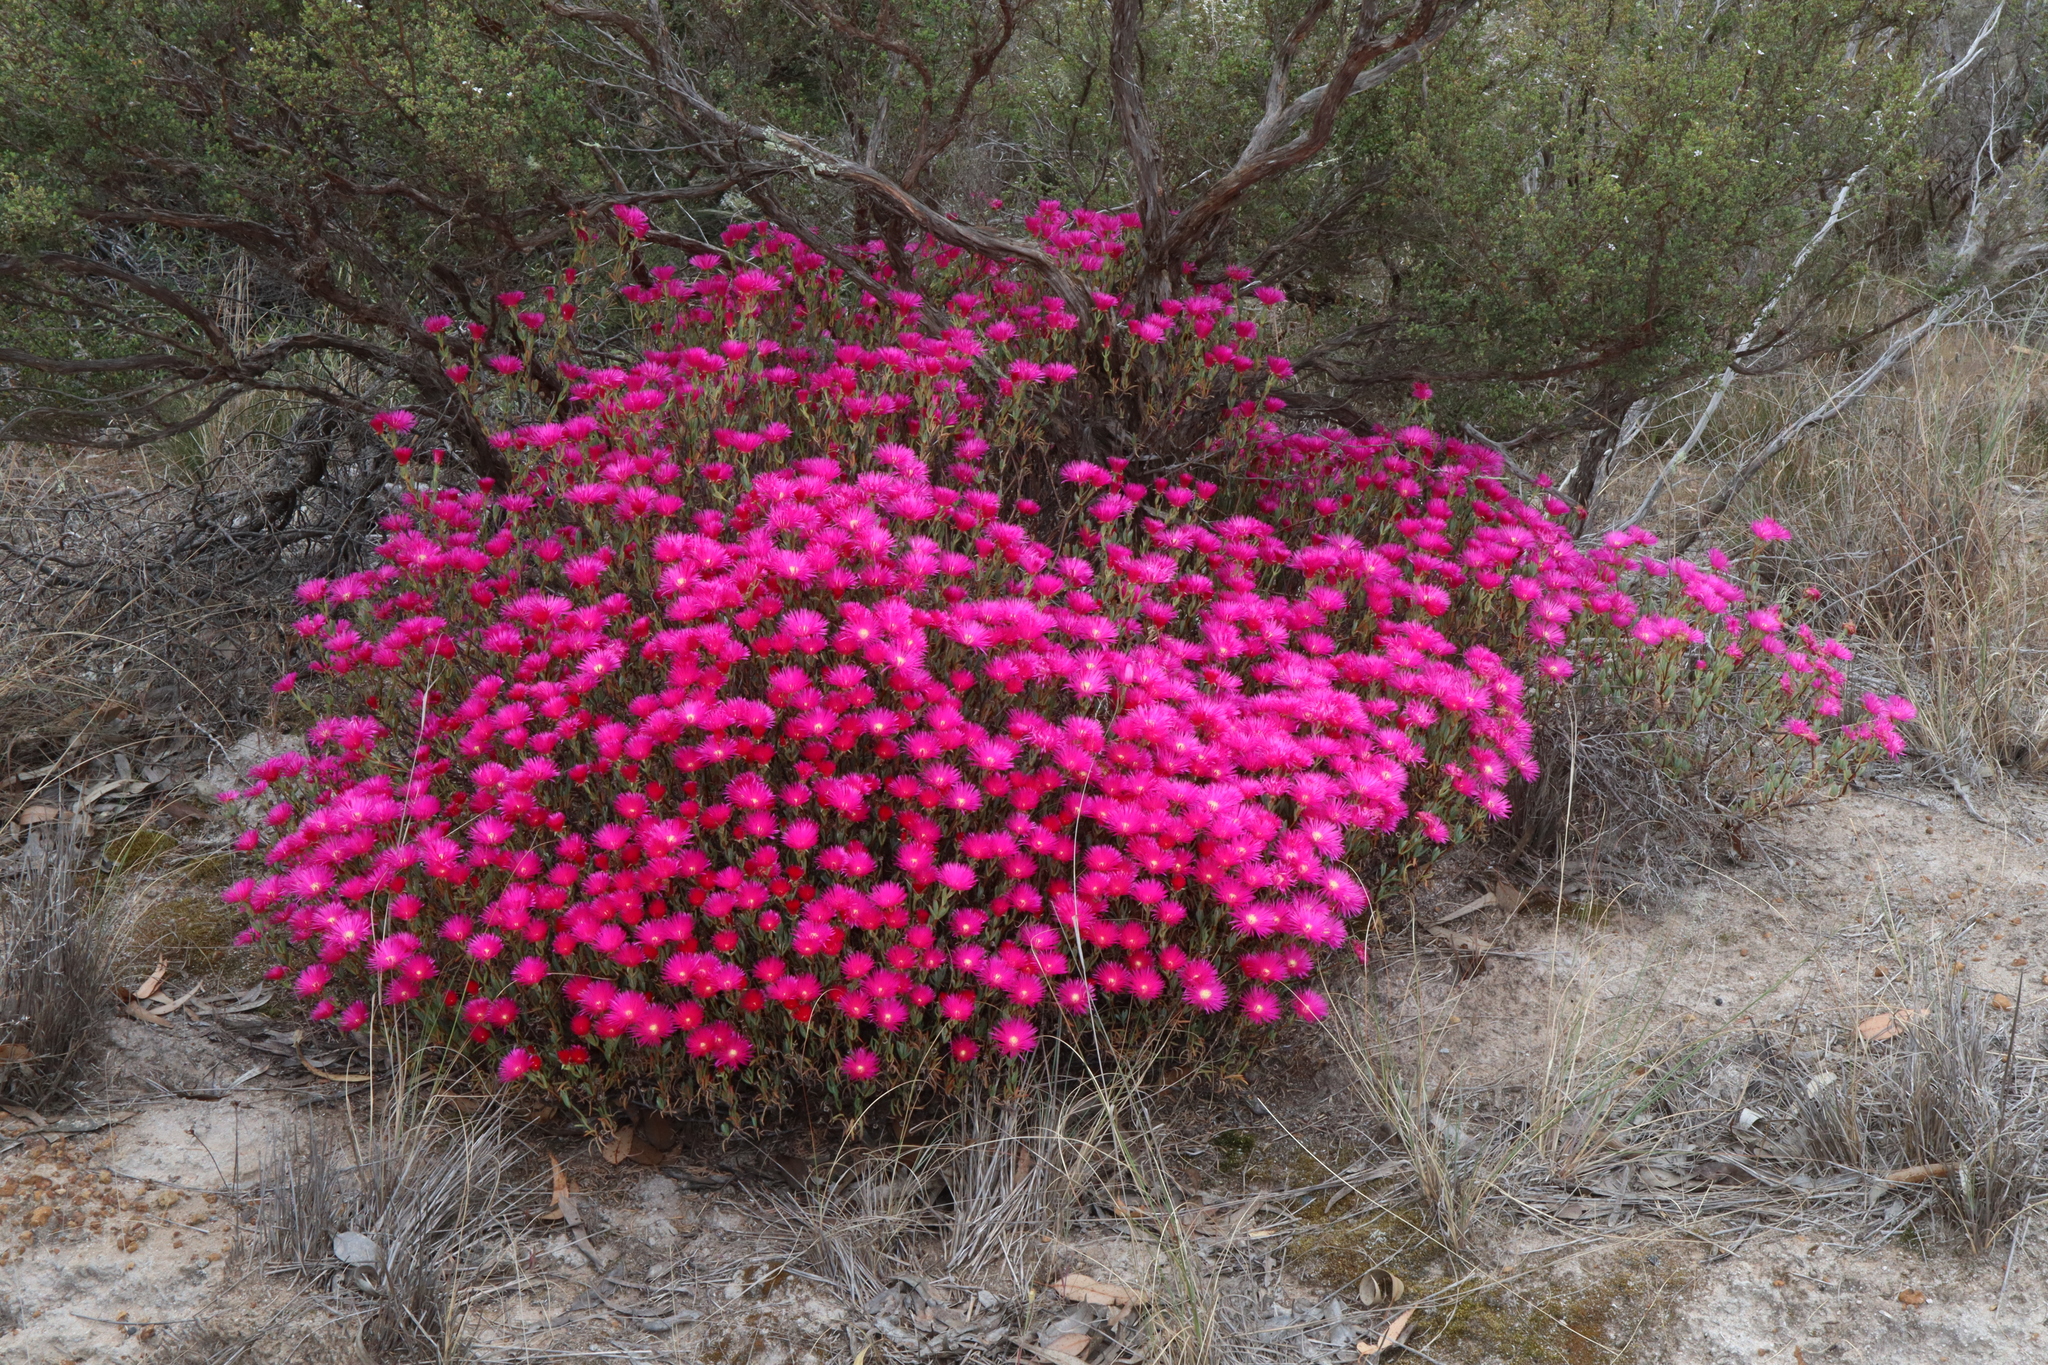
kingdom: Plantae
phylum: Tracheophyta
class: Magnoliopsida
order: Caryophyllales
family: Aizoaceae
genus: Lampranthus
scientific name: Lampranthus coccineus
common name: Redflush
